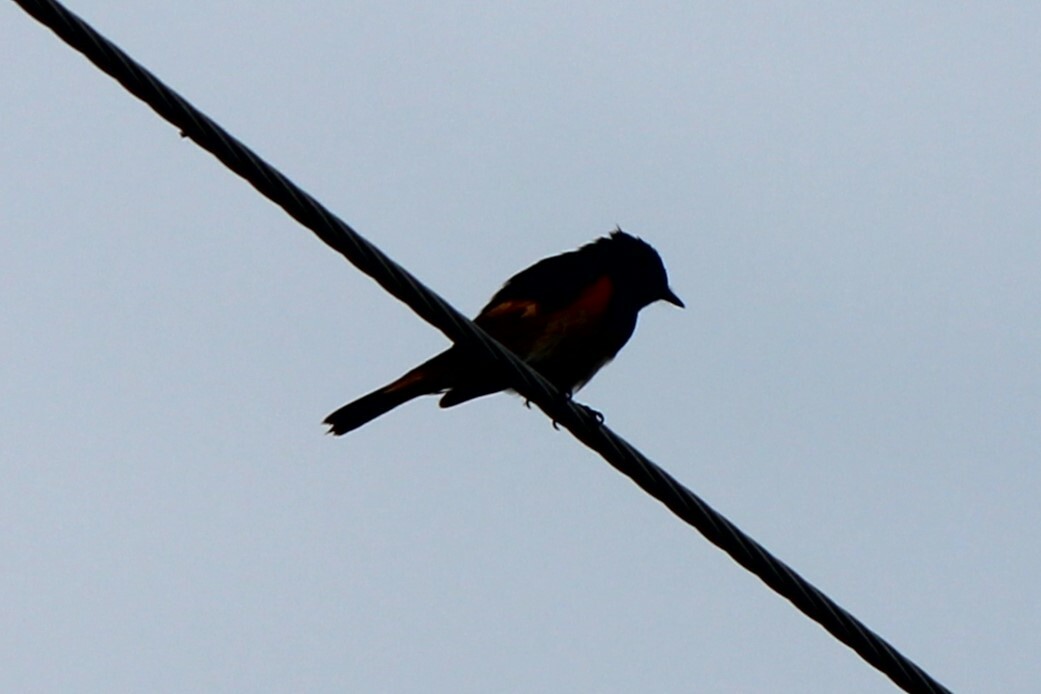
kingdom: Animalia
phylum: Chordata
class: Aves
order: Passeriformes
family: Parulidae
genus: Setophaga
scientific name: Setophaga ruticilla
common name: American redstart
